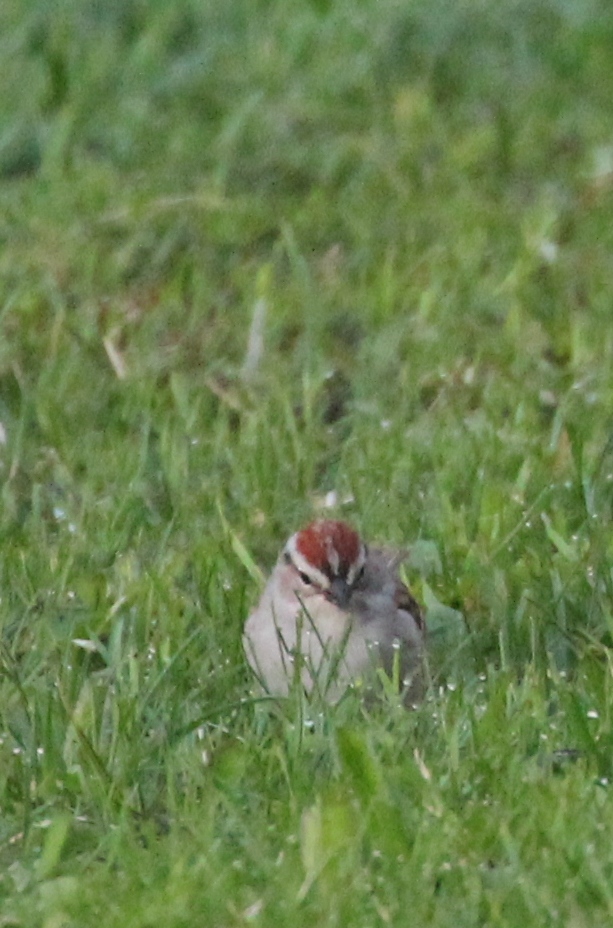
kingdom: Animalia
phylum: Chordata
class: Aves
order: Passeriformes
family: Passerellidae
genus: Spizella
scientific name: Spizella passerina
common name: Chipping sparrow
